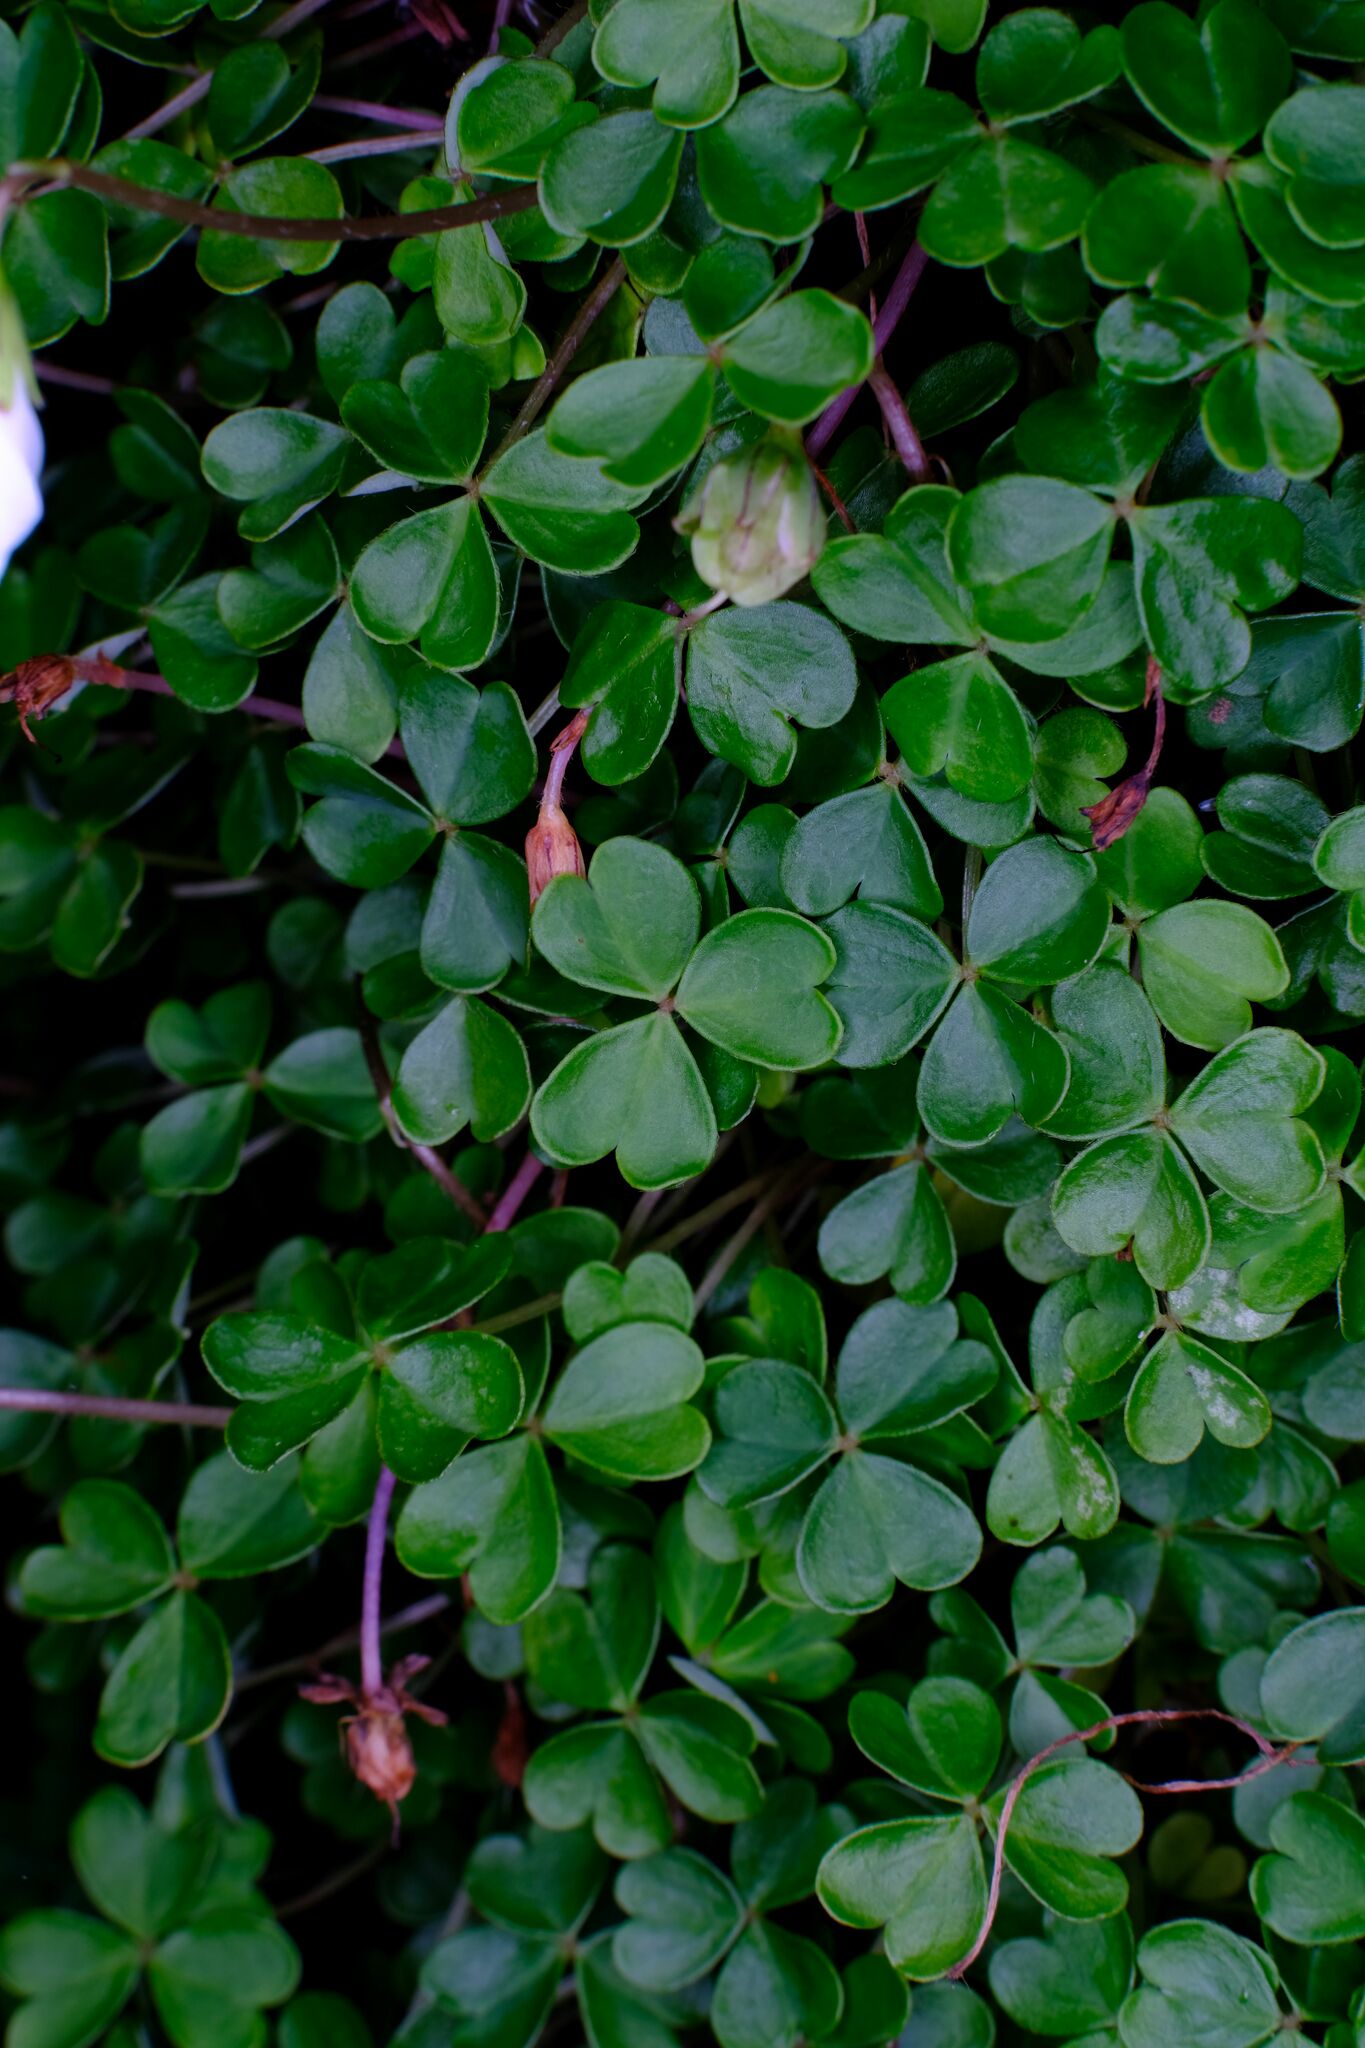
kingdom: Plantae
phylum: Tracheophyta
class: Magnoliopsida
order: Oxalidales
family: Oxalidaceae
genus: Oxalis
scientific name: Oxalis magellanica
